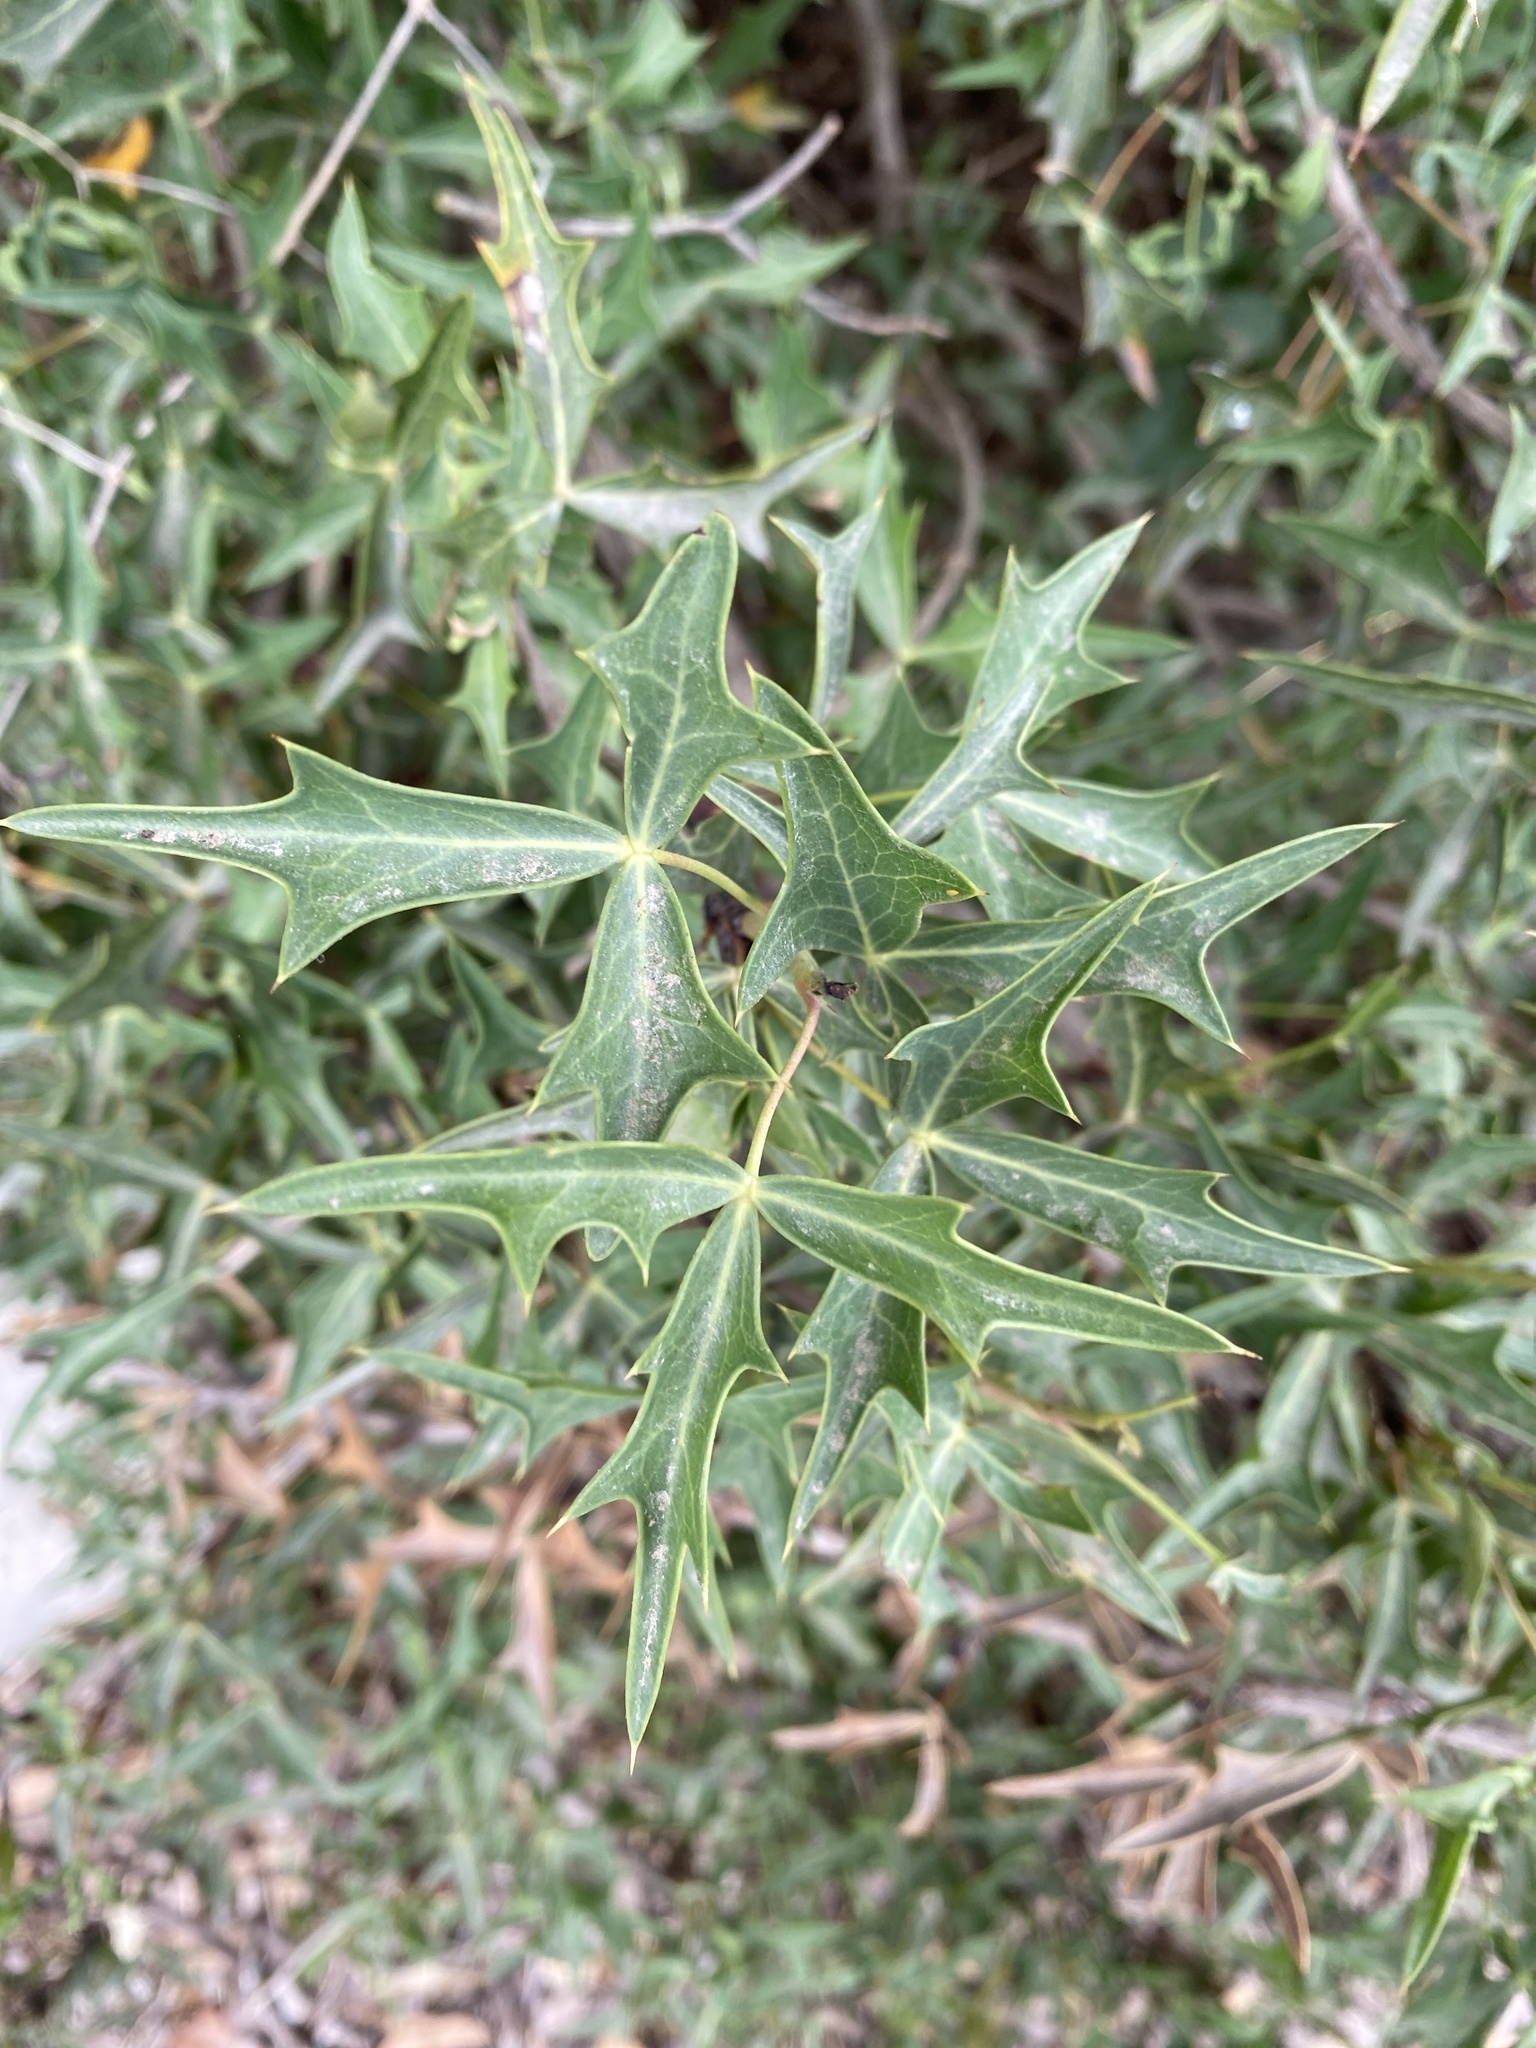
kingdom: Plantae
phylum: Tracheophyta
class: Magnoliopsida
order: Ranunculales
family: Berberidaceae
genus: Alloberberis
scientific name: Alloberberis trifoliolata
